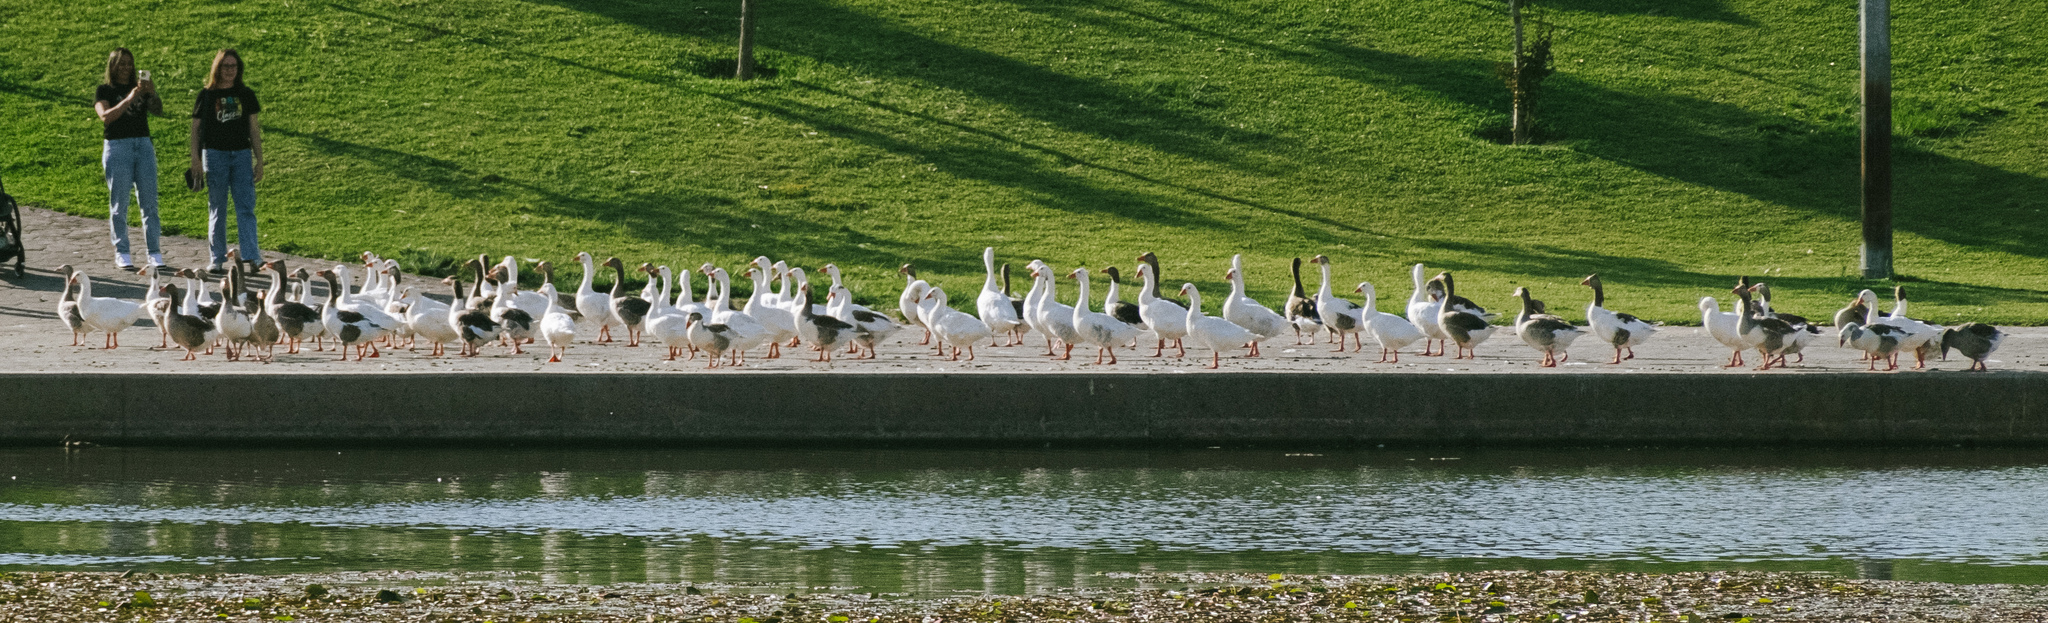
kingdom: Animalia
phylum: Chordata
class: Aves
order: Anseriformes
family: Anatidae
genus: Anser
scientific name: Anser anser
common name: Greylag goose
